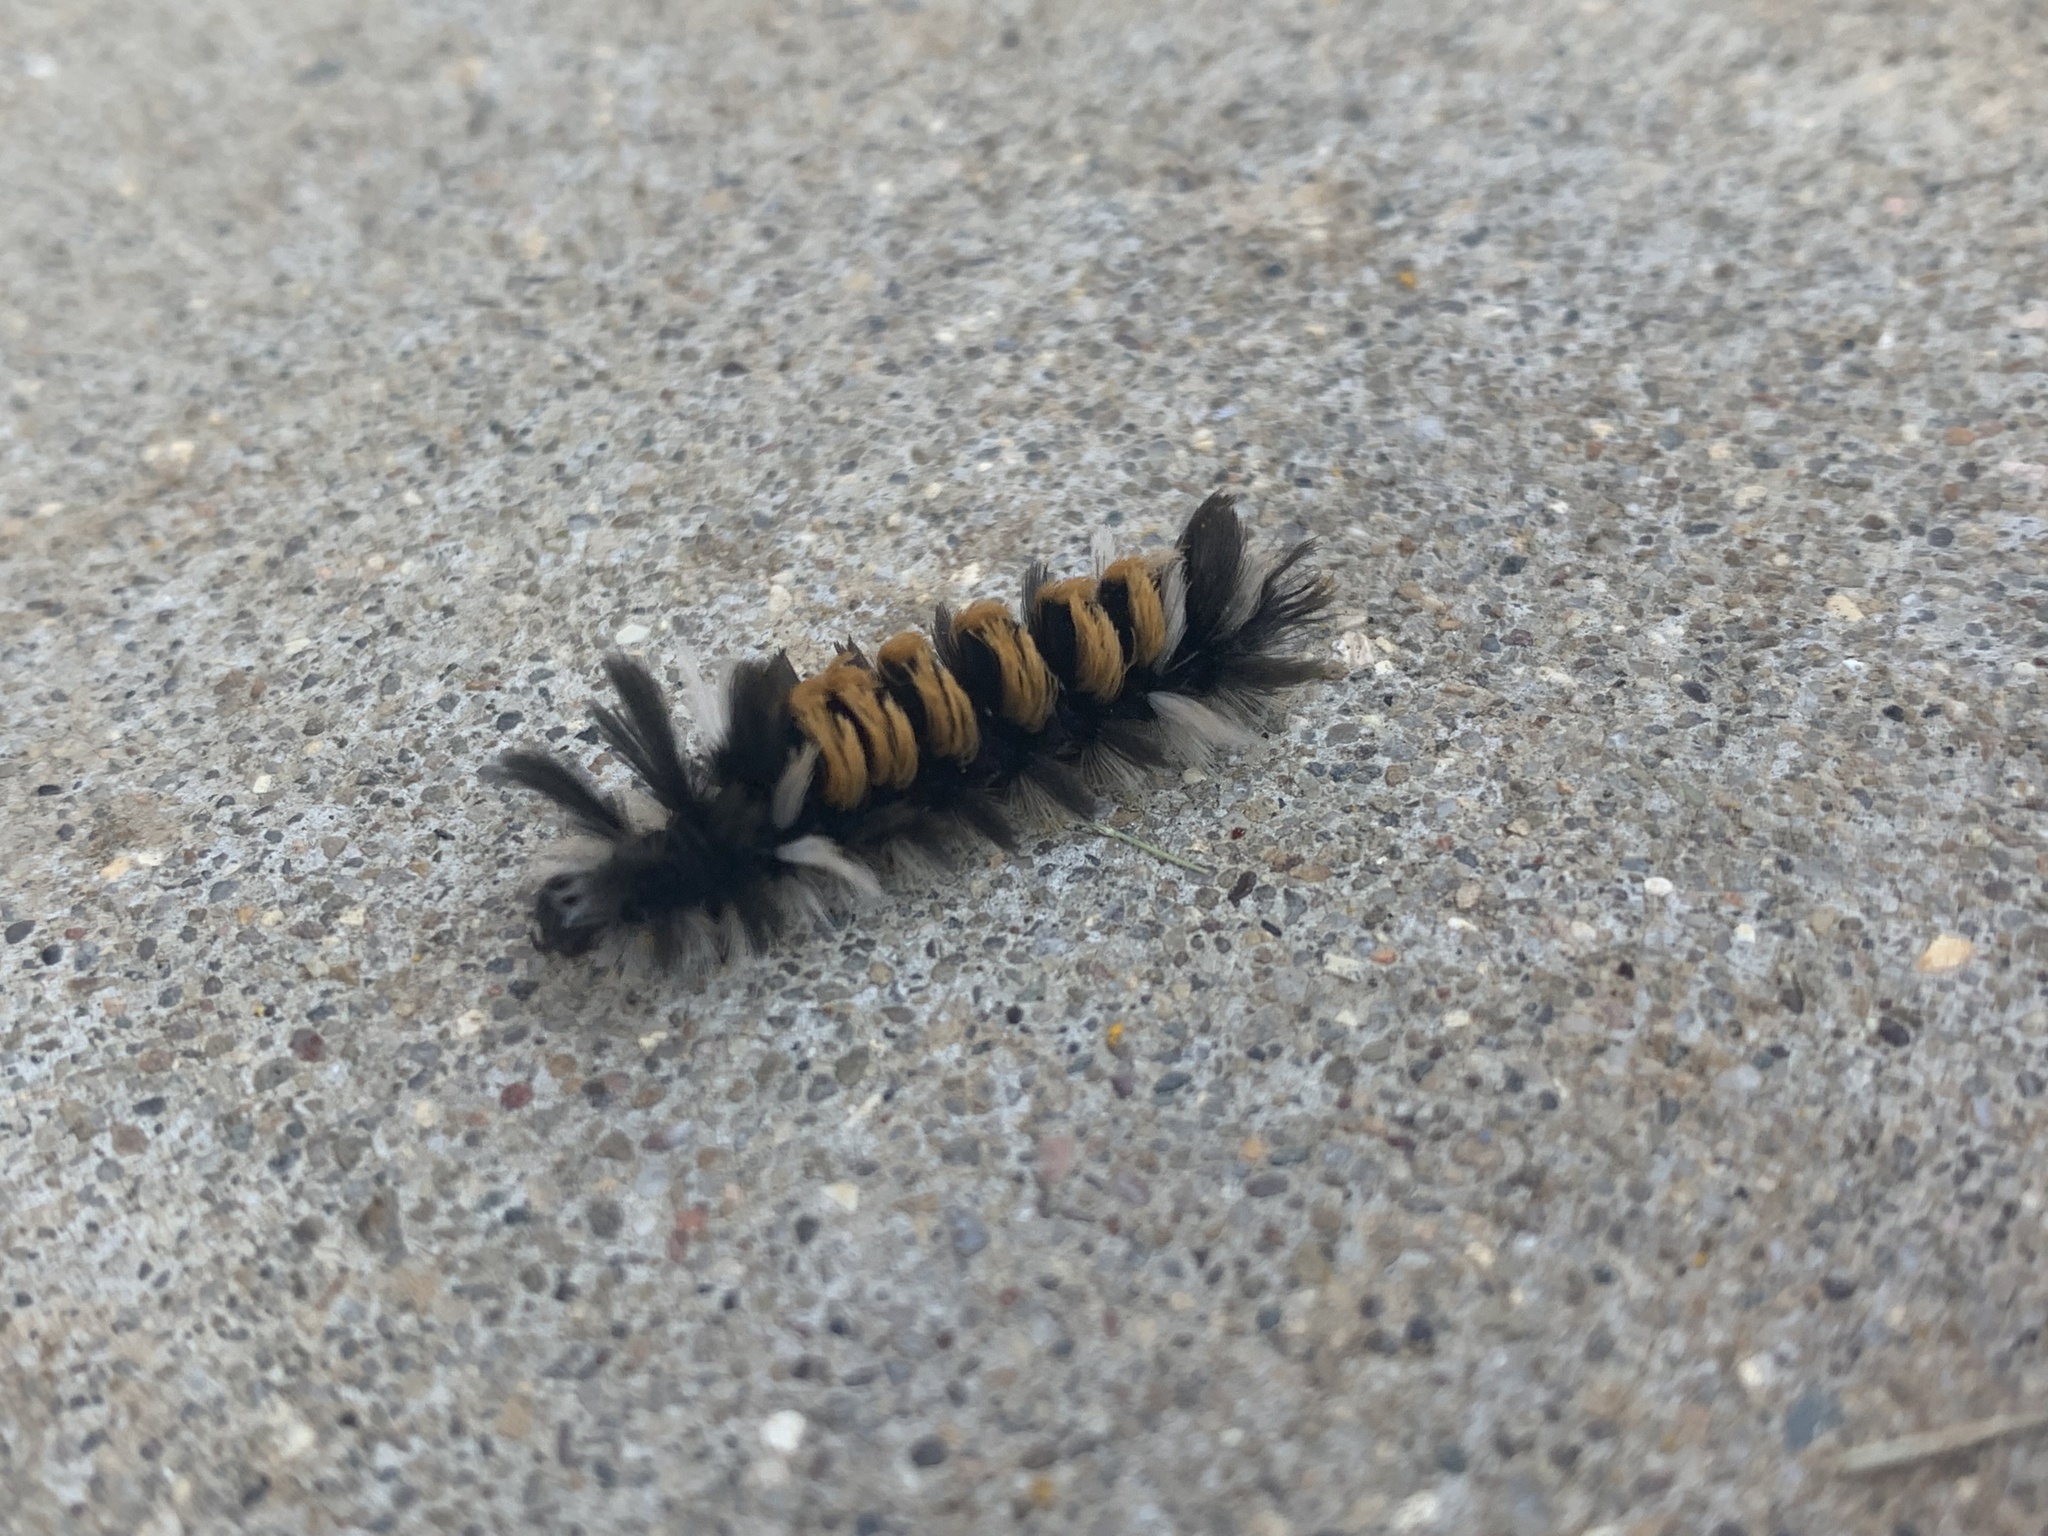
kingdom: Animalia
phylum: Arthropoda
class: Insecta
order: Lepidoptera
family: Erebidae
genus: Euchaetes
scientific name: Euchaetes egle
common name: Milkweed tussock moth
